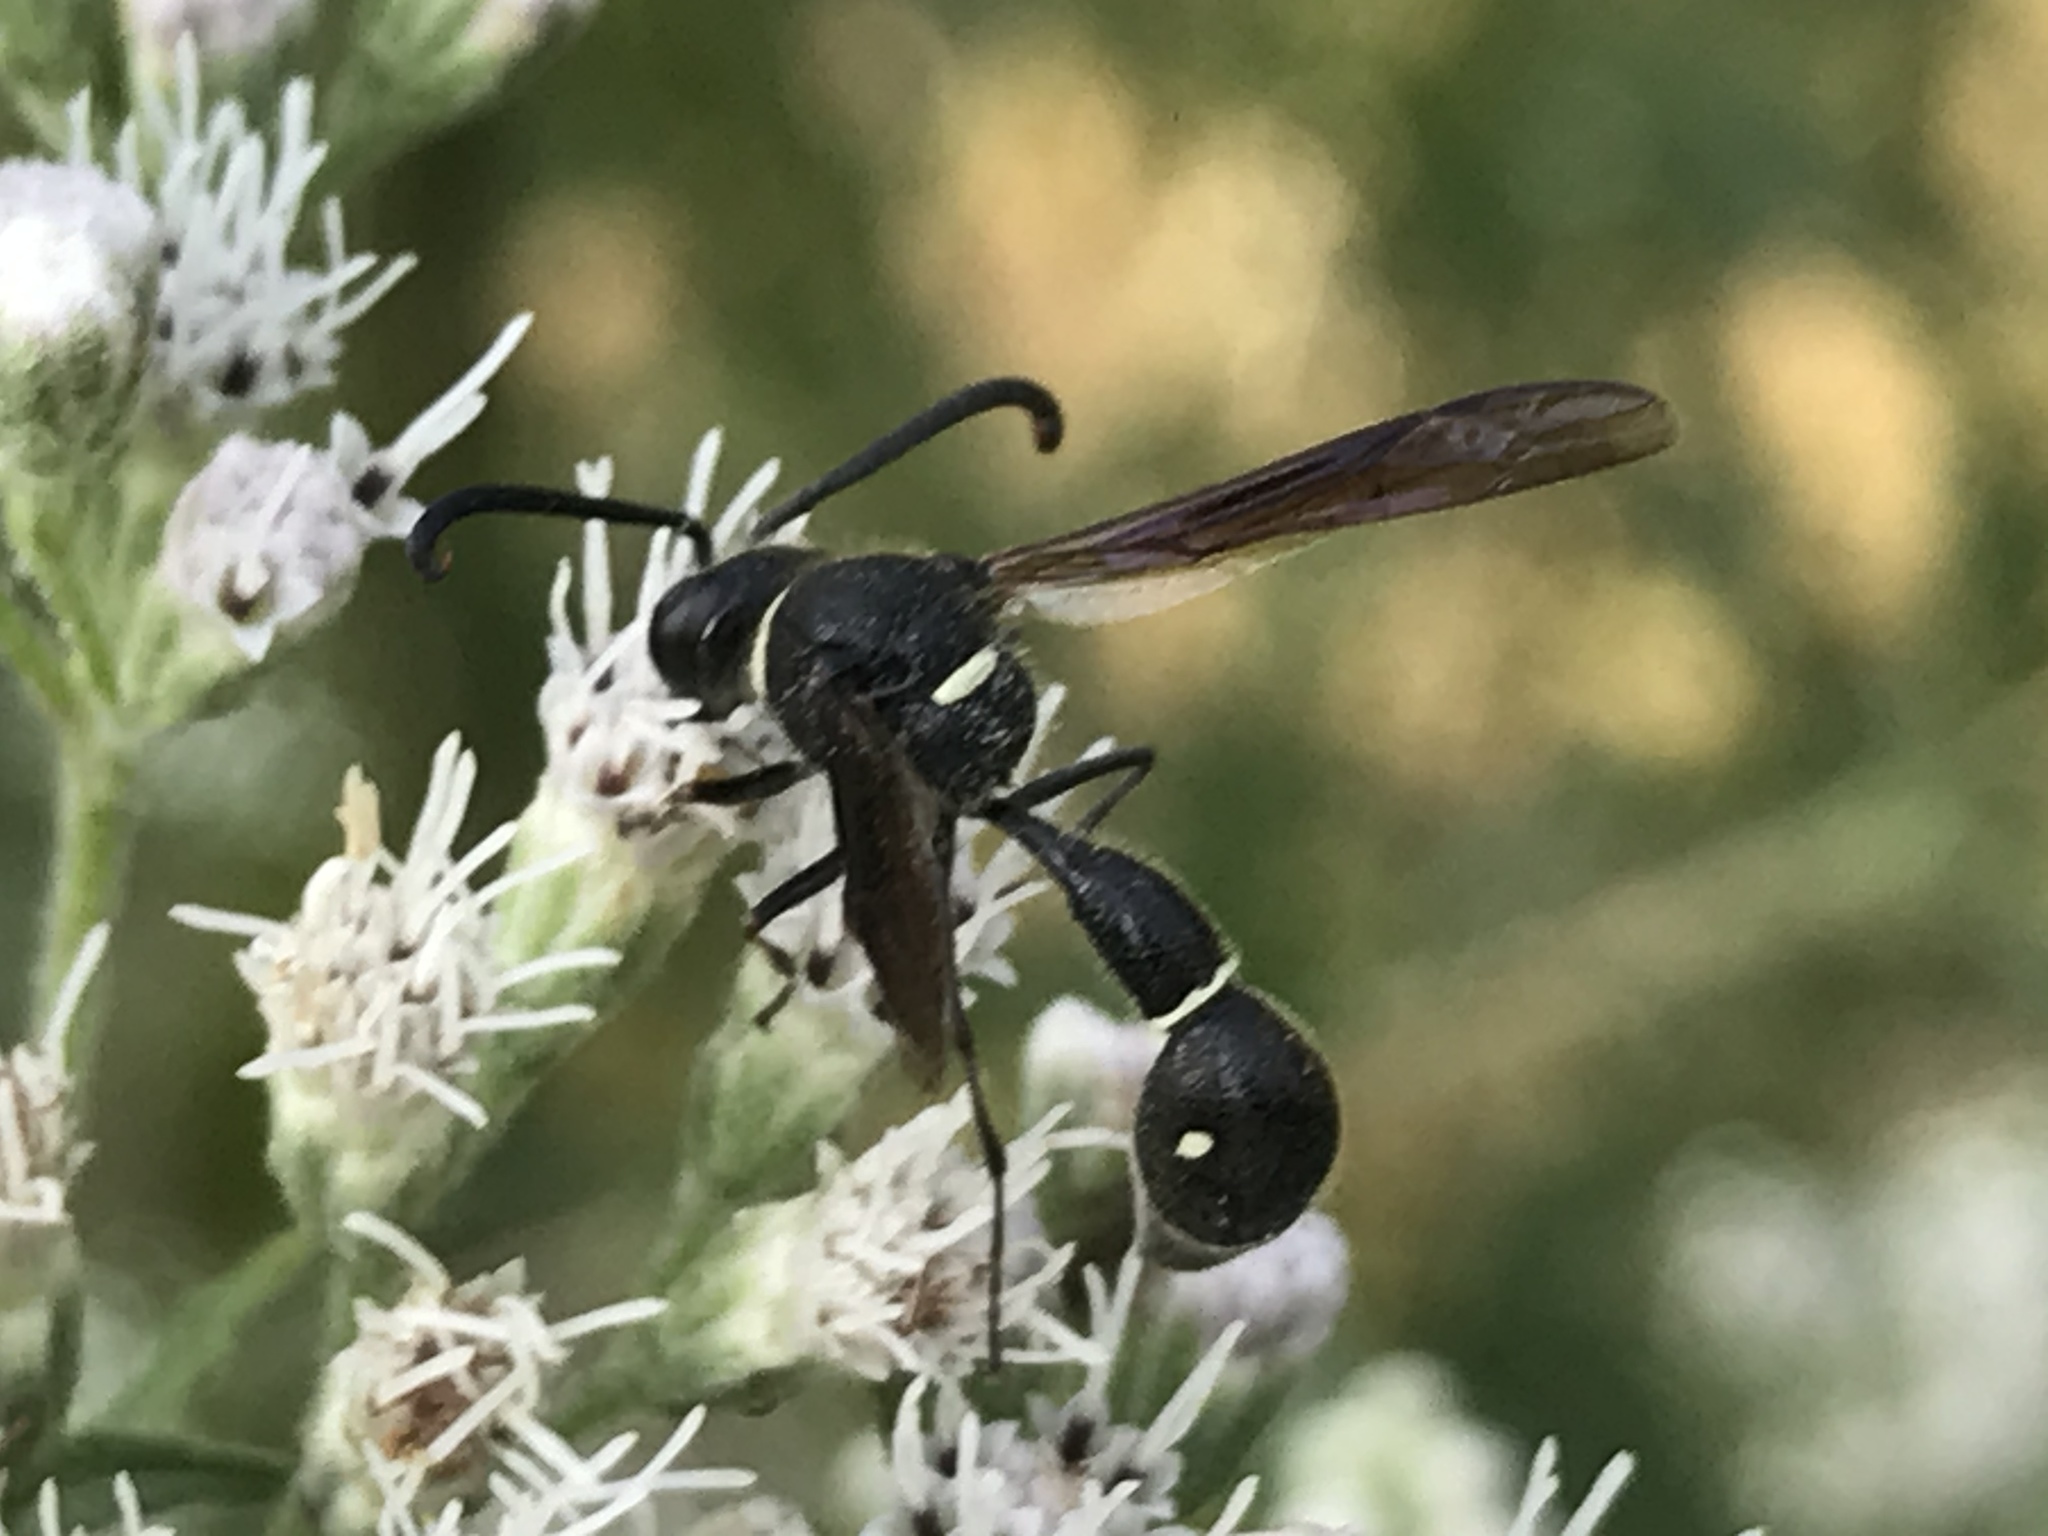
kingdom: Animalia
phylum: Arthropoda
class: Insecta
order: Hymenoptera
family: Vespidae
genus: Eumenes
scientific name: Eumenes fraternus
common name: Fraternal potter wasp
